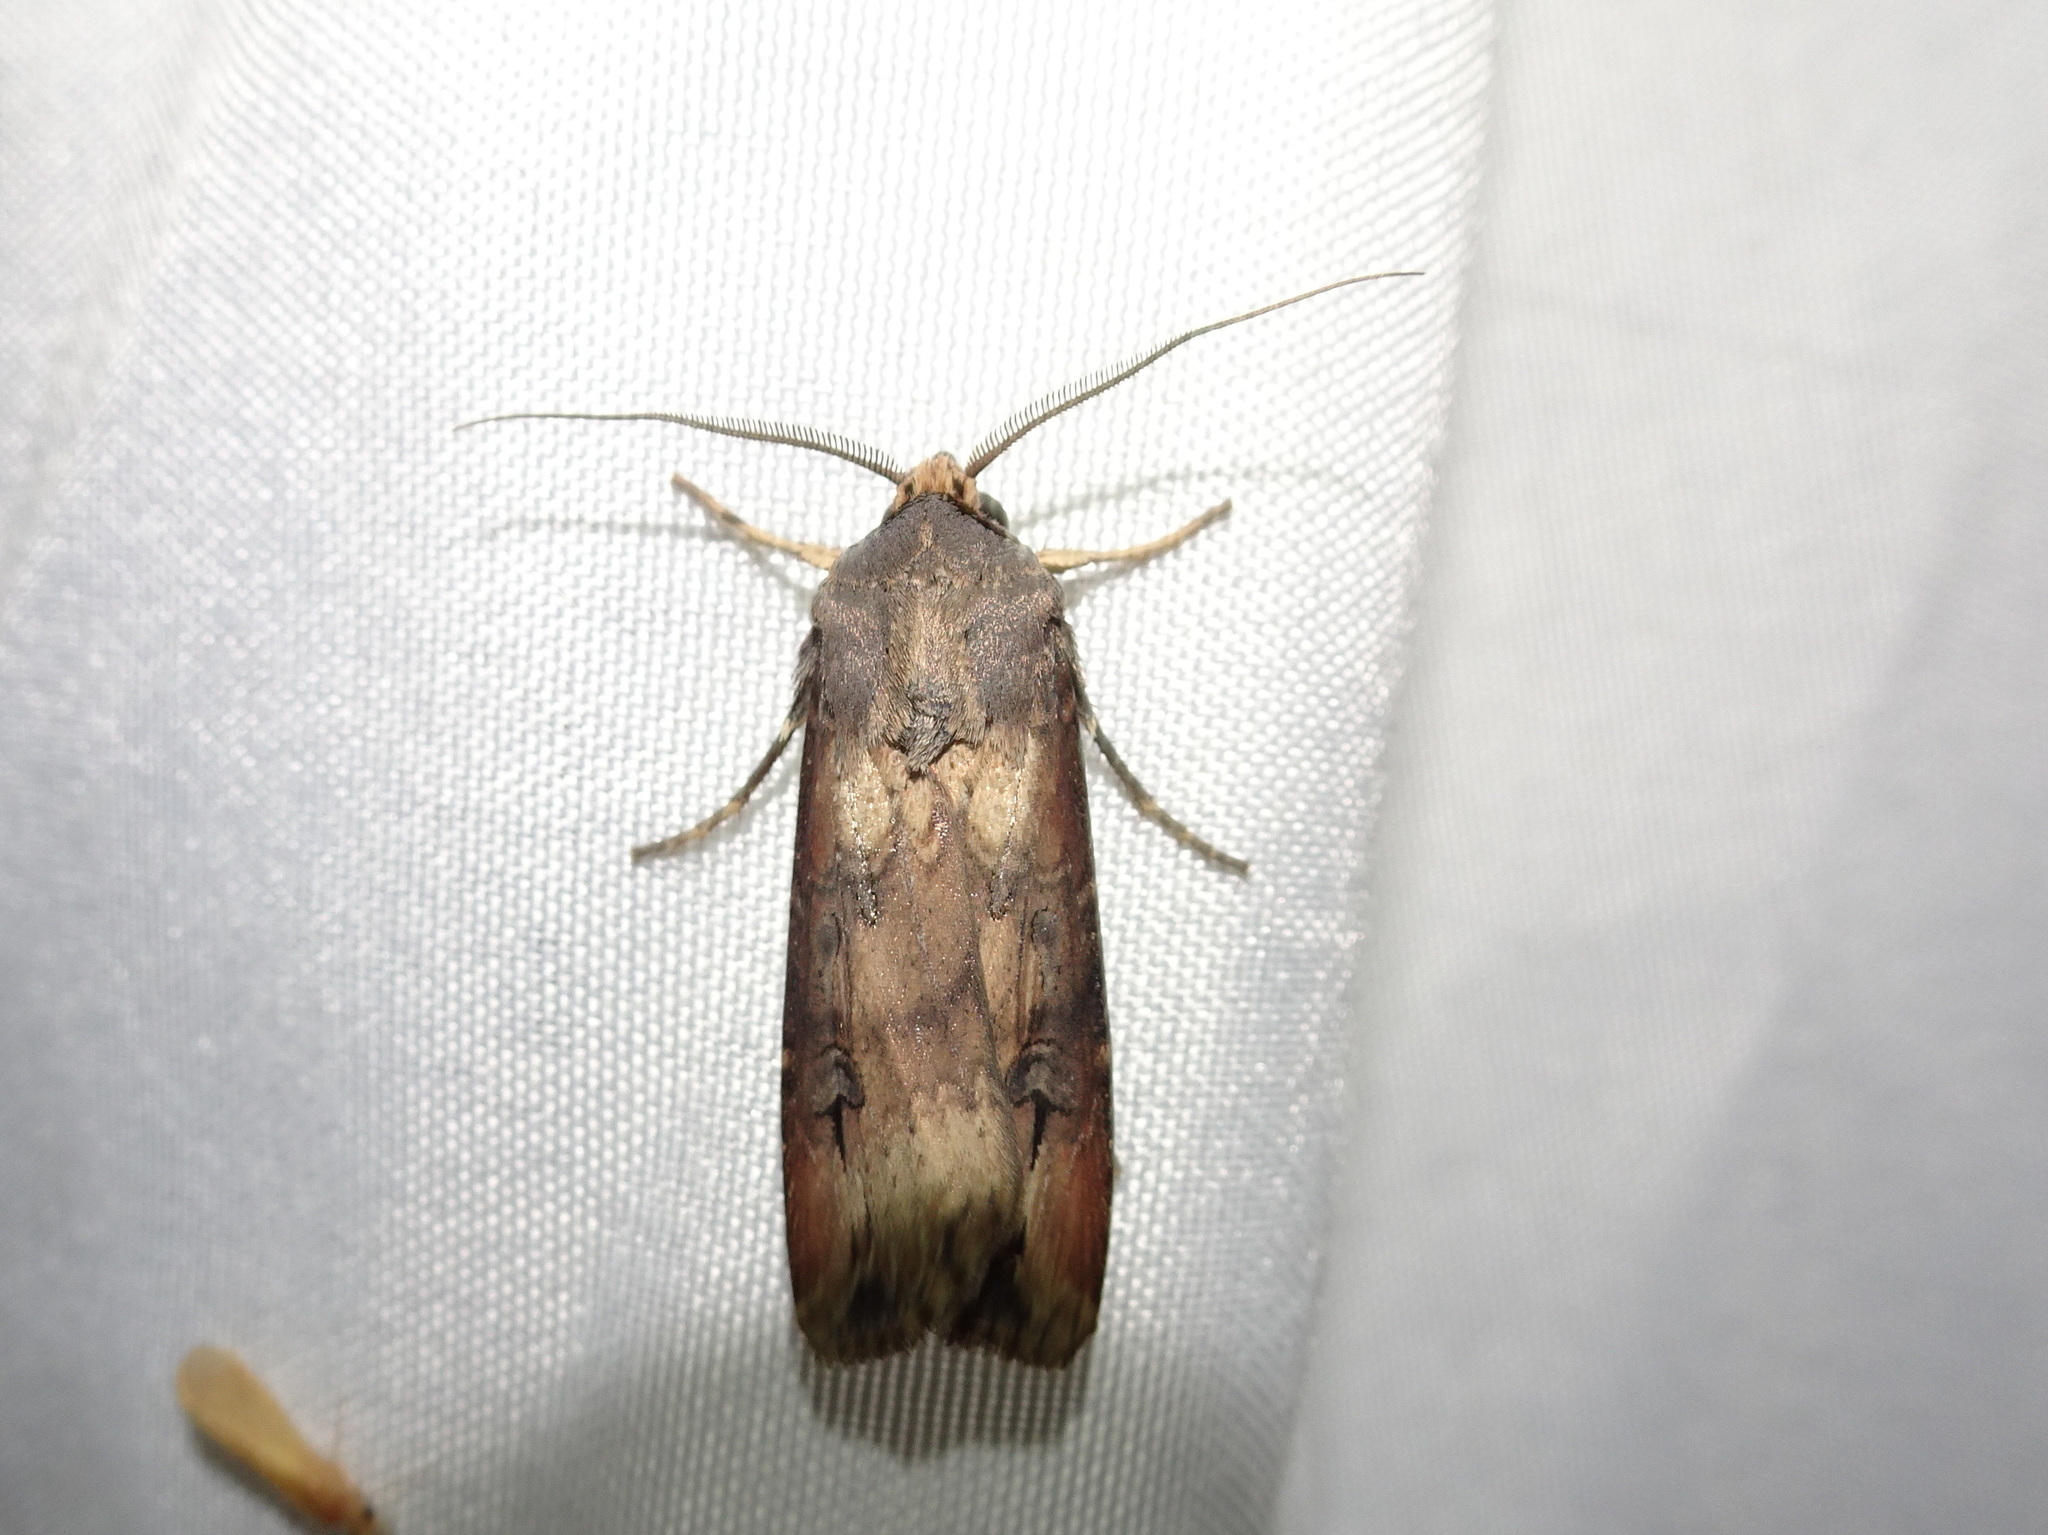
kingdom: Animalia
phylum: Arthropoda
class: Insecta
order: Lepidoptera
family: Noctuidae
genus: Agrotis
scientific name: Agrotis ipsilon
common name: Dark sword-grass
